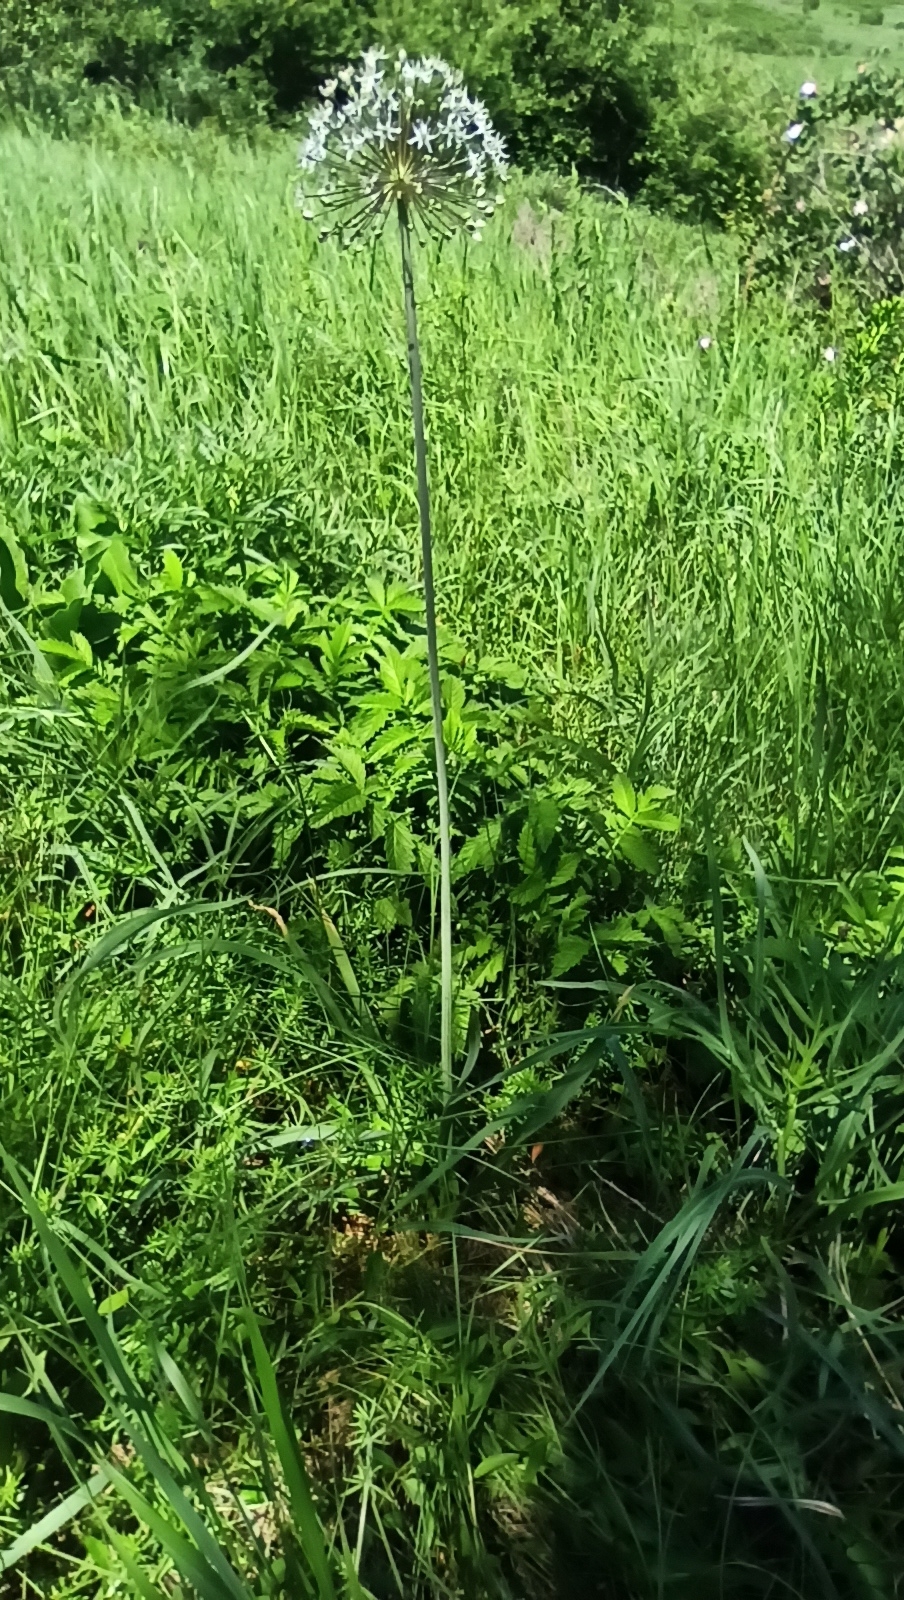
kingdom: Plantae
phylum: Tracheophyta
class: Liliopsida
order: Asparagales
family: Amaryllidaceae
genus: Allium
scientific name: Allium decipiens
